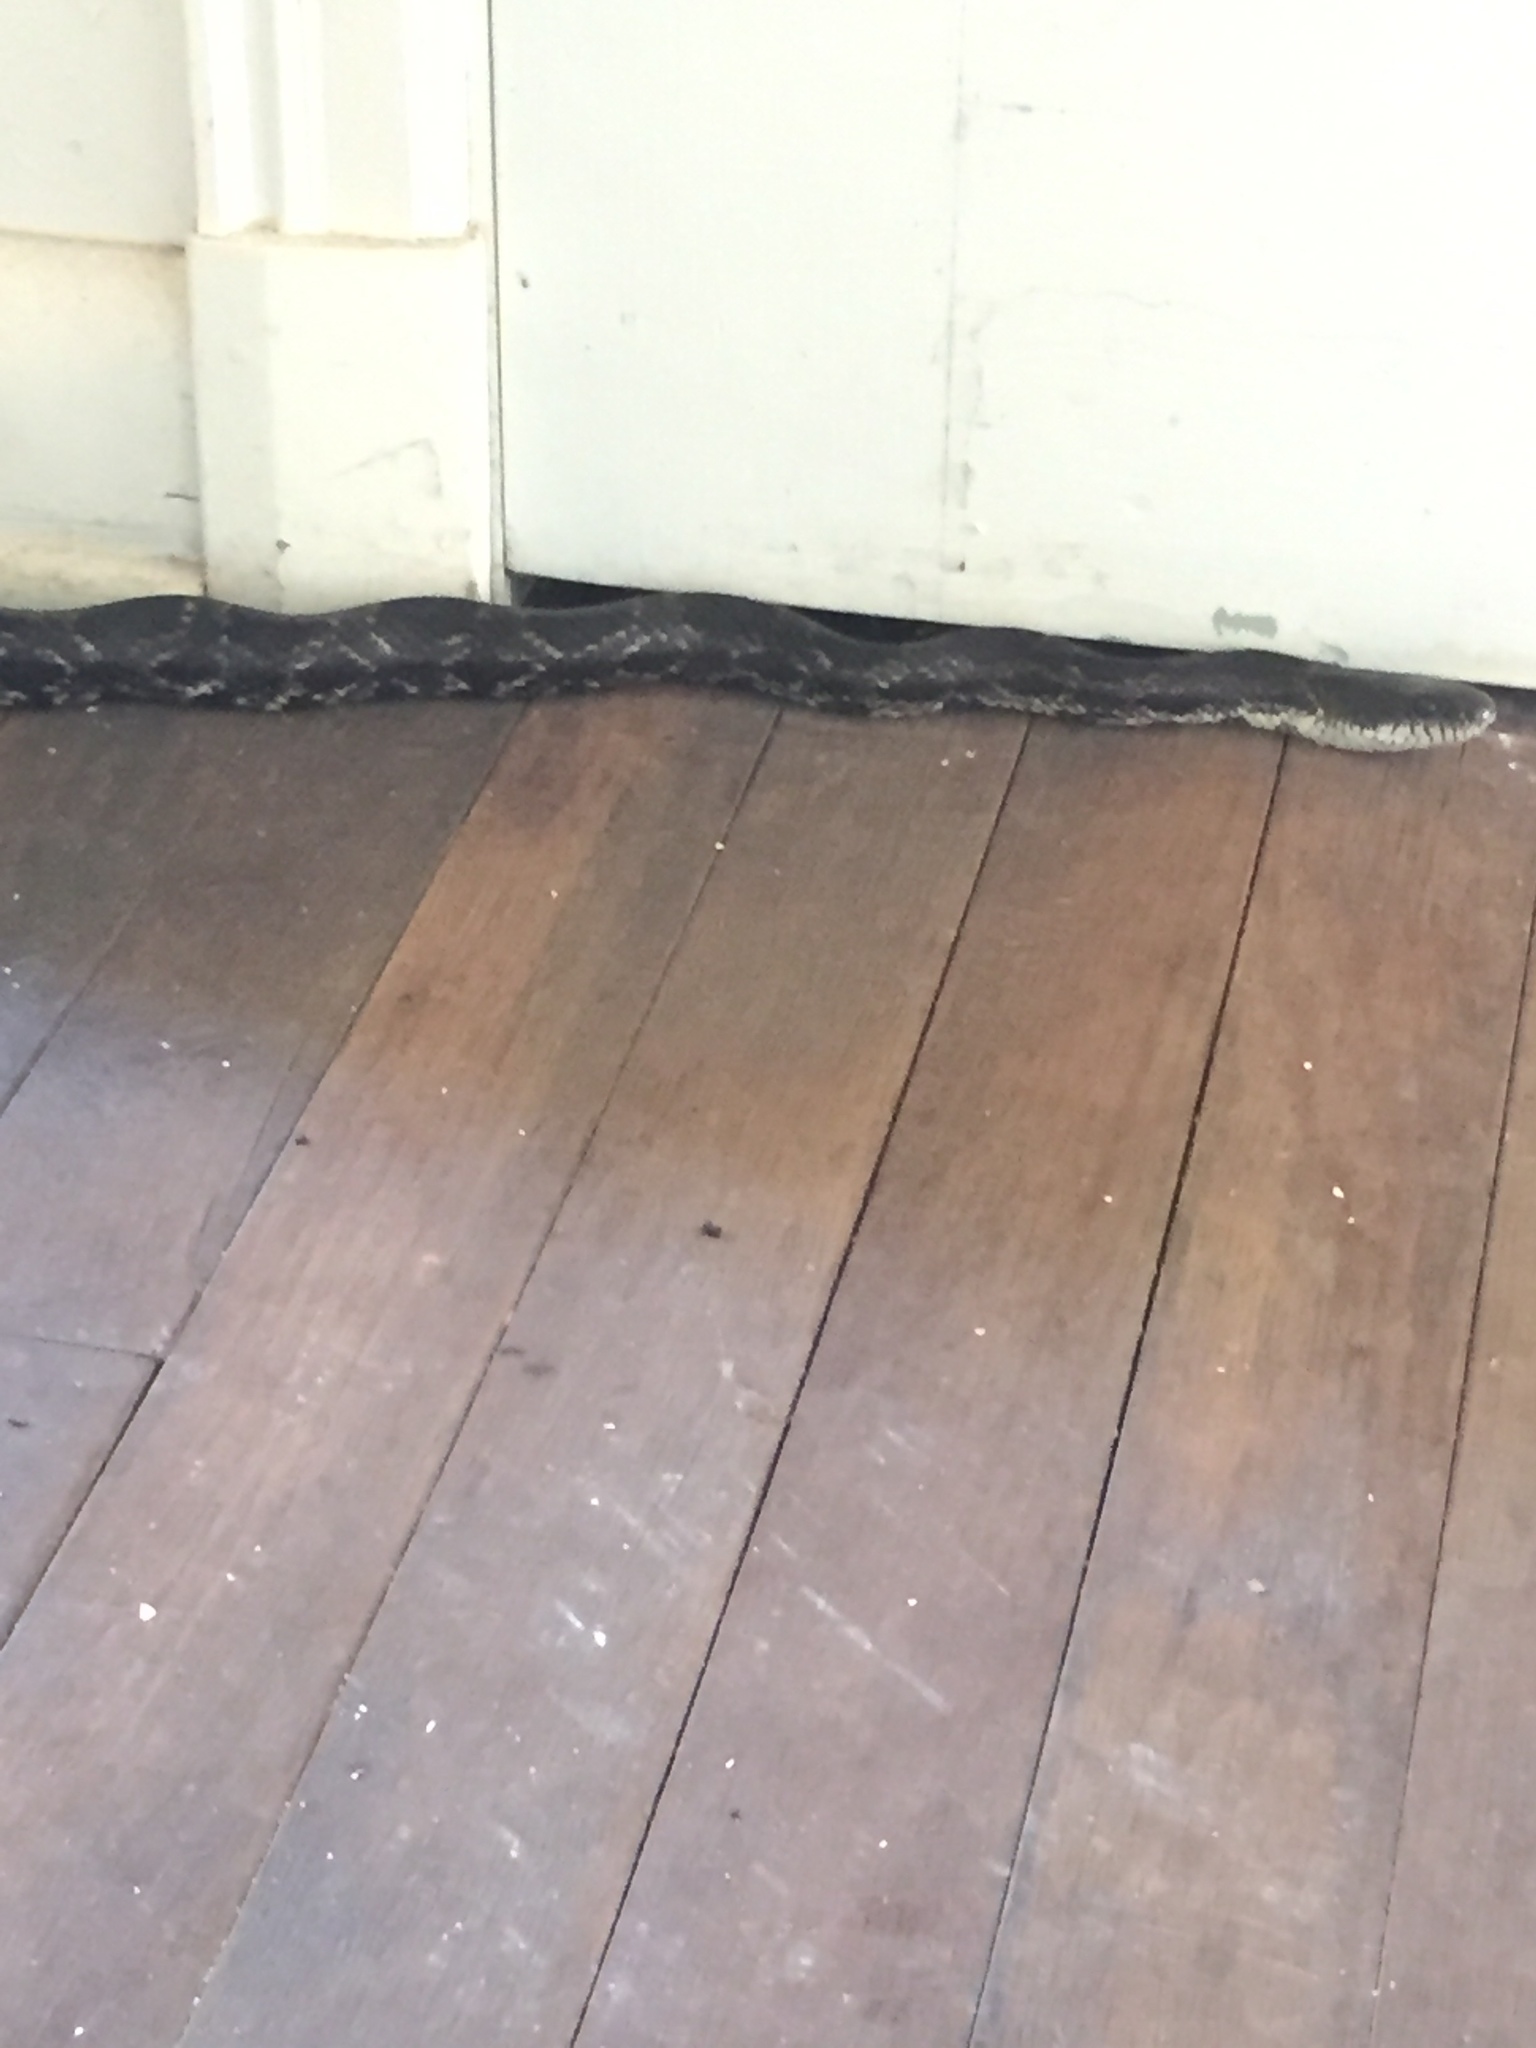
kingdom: Animalia
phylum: Chordata
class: Squamata
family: Colubridae
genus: Pantherophis
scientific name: Pantherophis spiloides
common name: Gray rat snake
